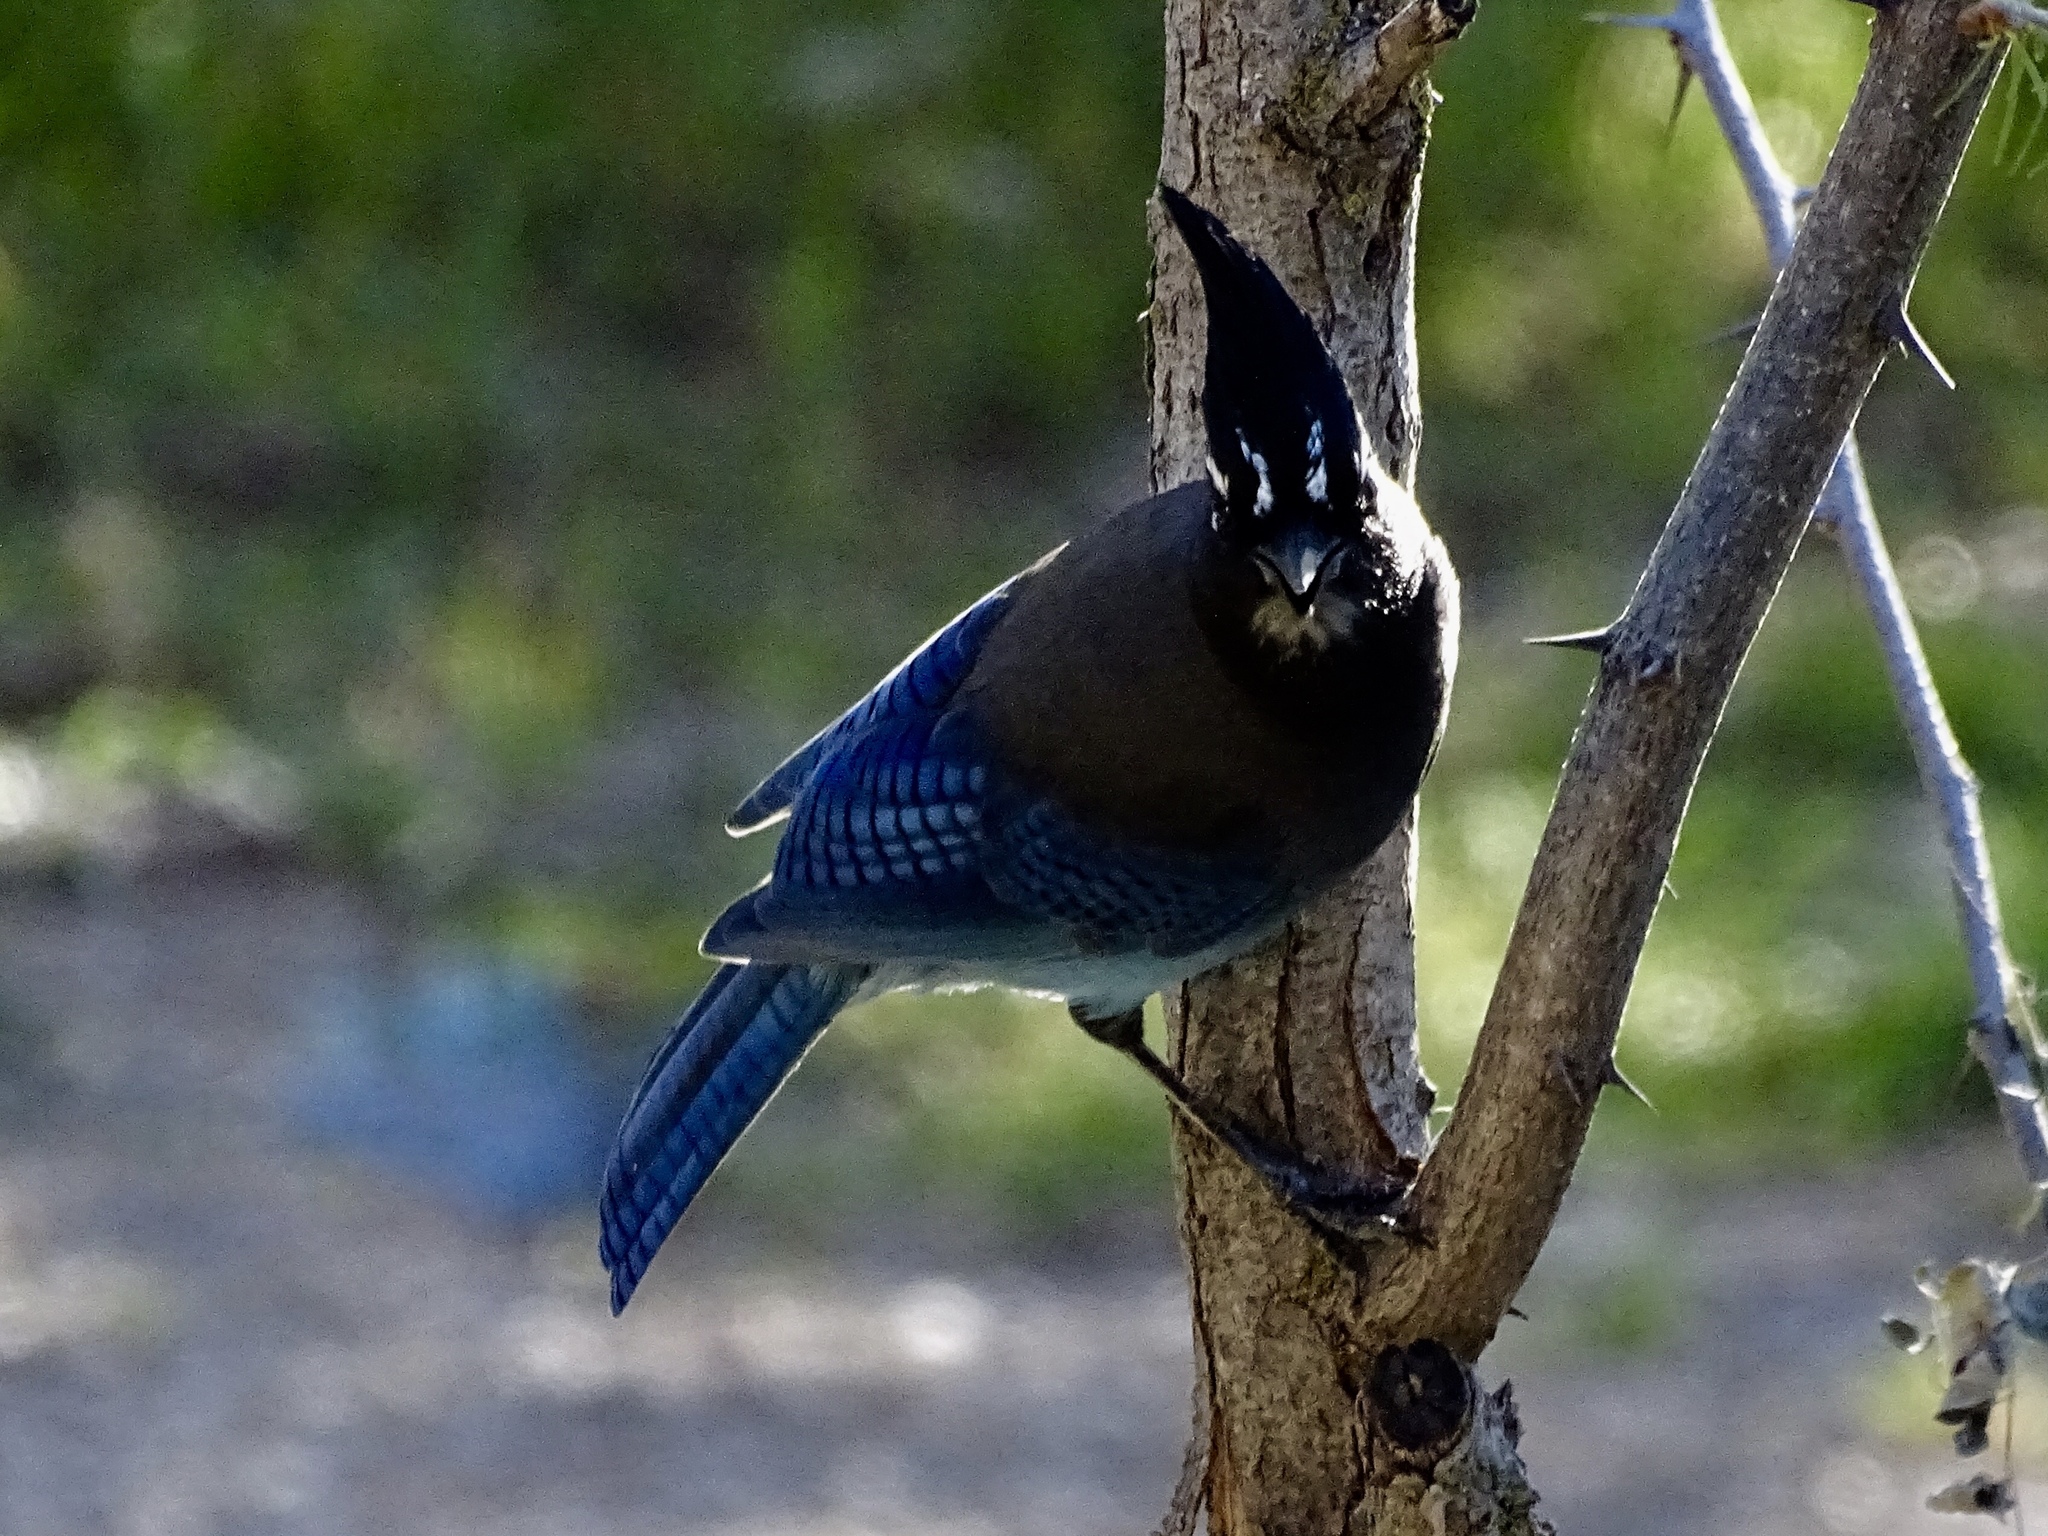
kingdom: Animalia
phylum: Chordata
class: Aves
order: Passeriformes
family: Corvidae
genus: Cyanocitta
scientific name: Cyanocitta stelleri
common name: Steller's jay
